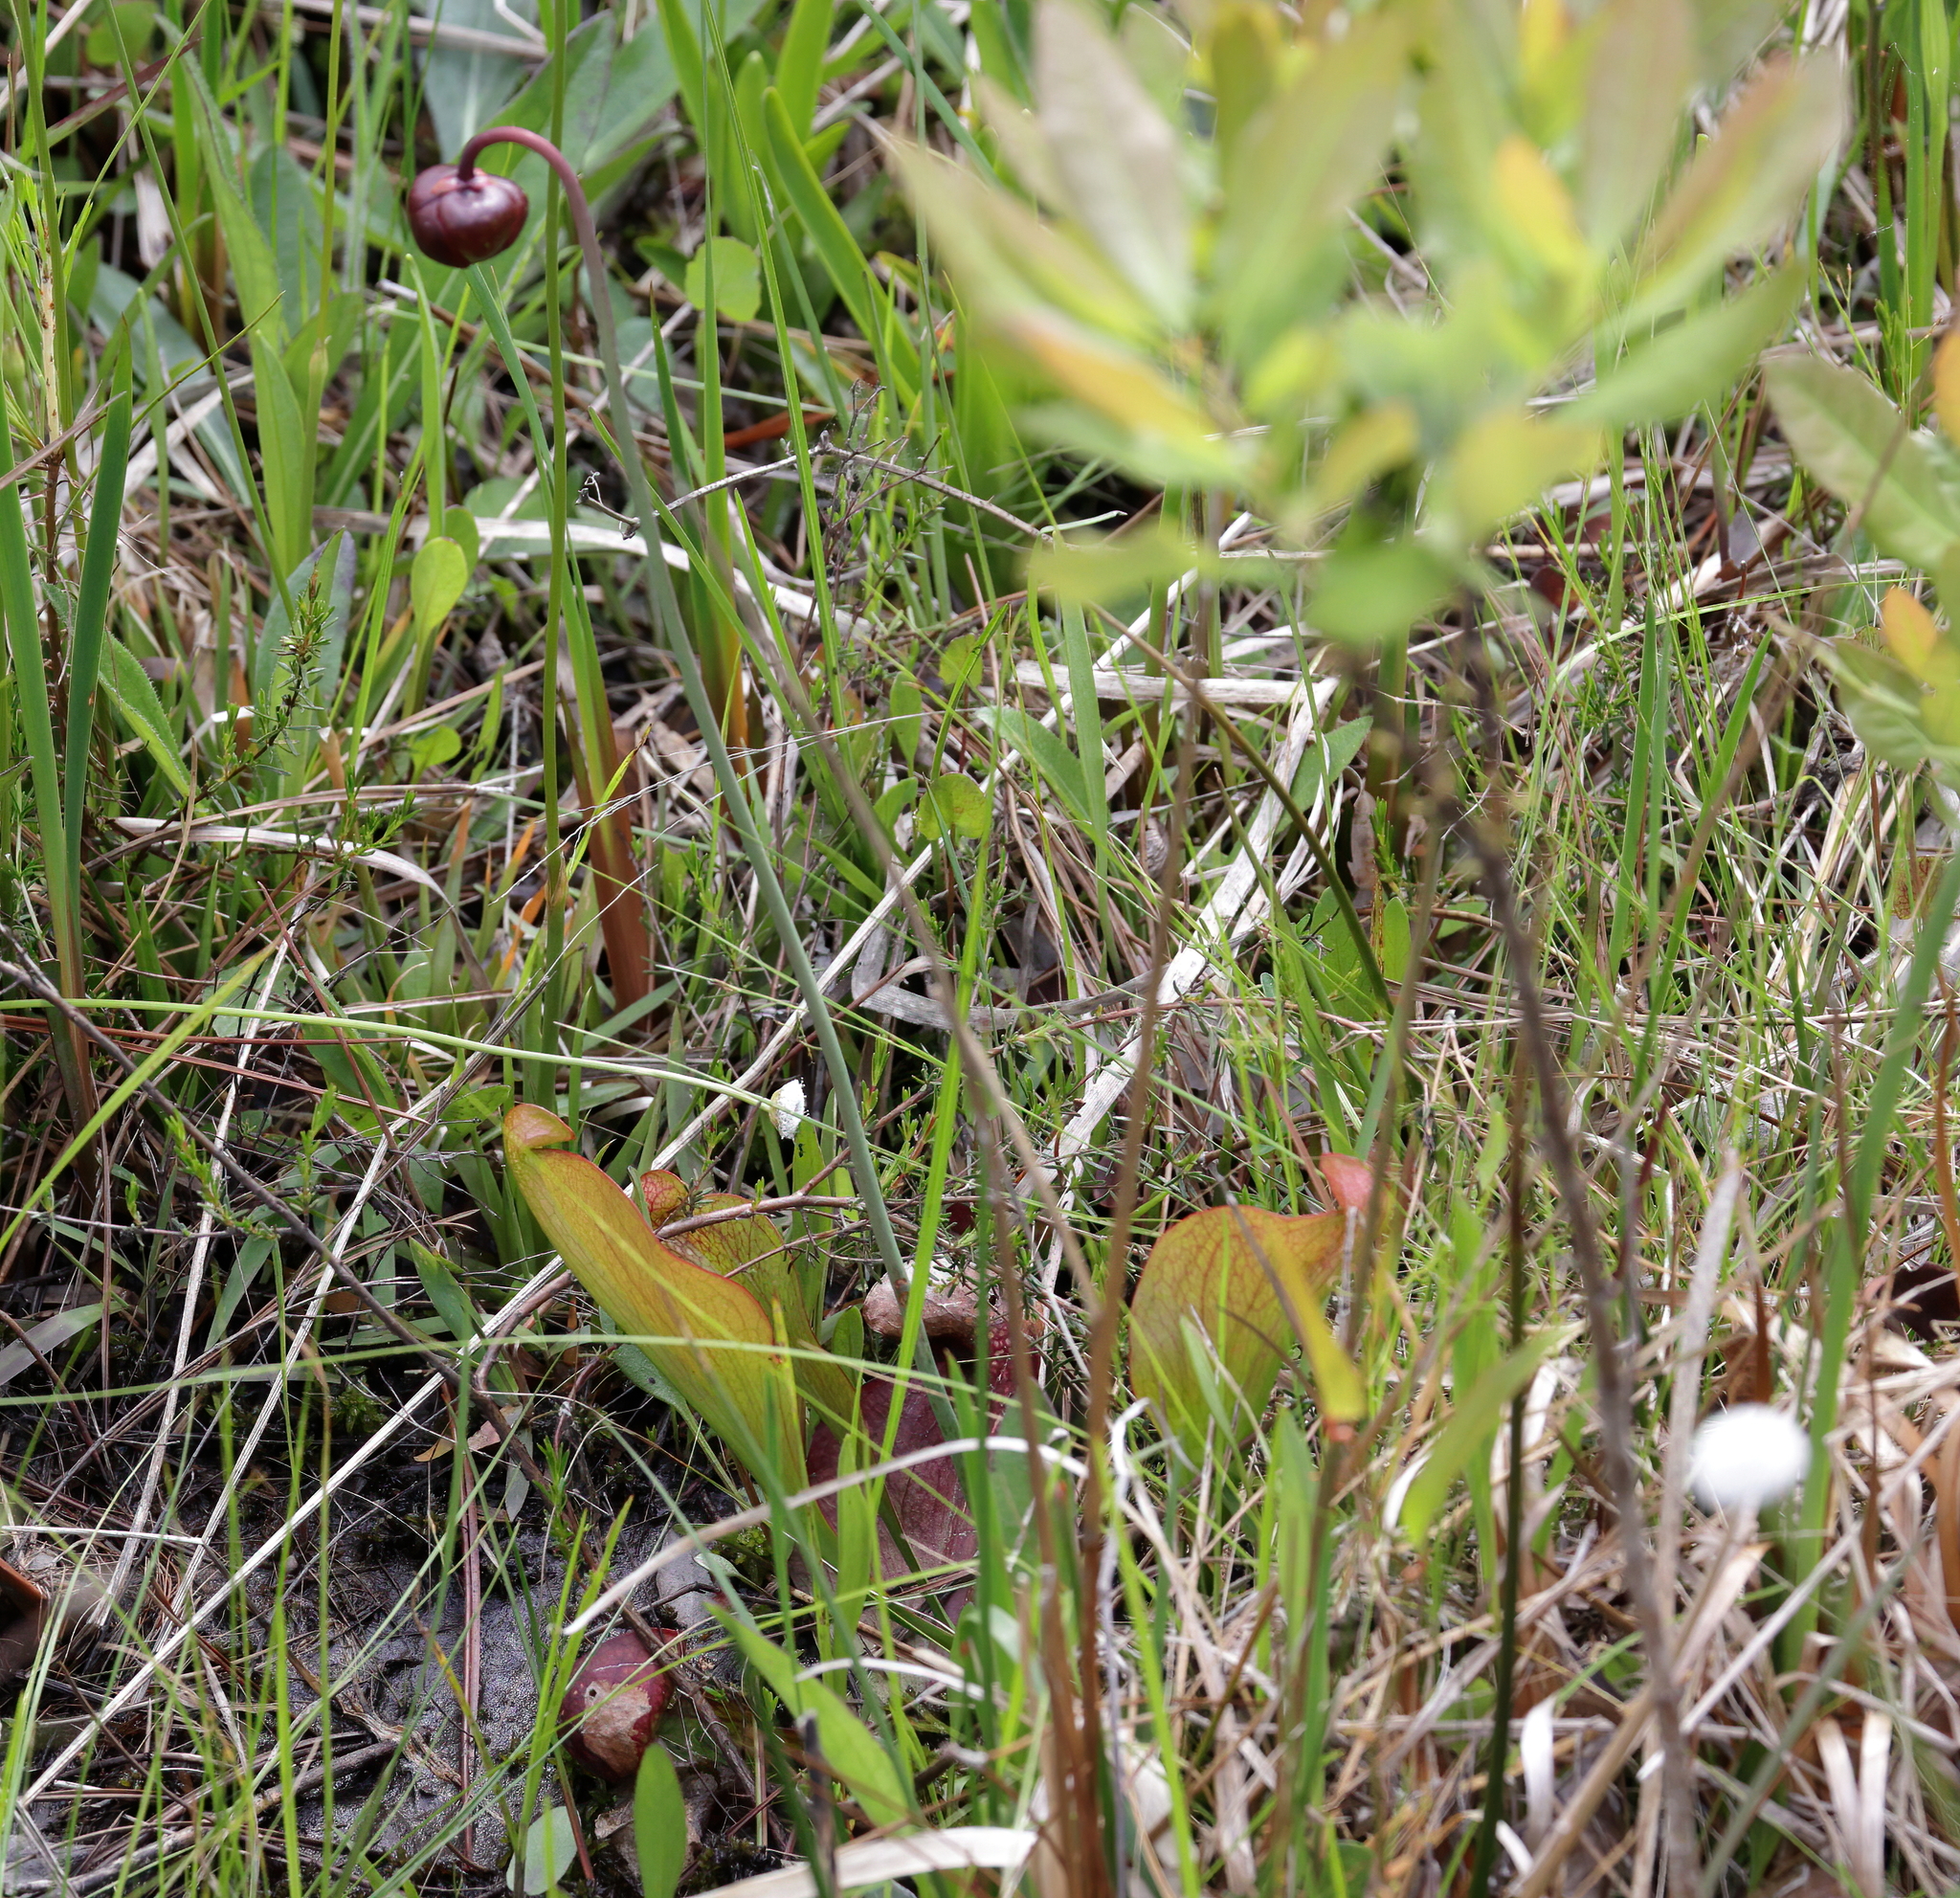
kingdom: Plantae
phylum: Tracheophyta
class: Magnoliopsida
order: Ericales
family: Sarraceniaceae
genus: Sarracenia
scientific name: Sarracenia psittacina
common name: Parrot pitcherplant
